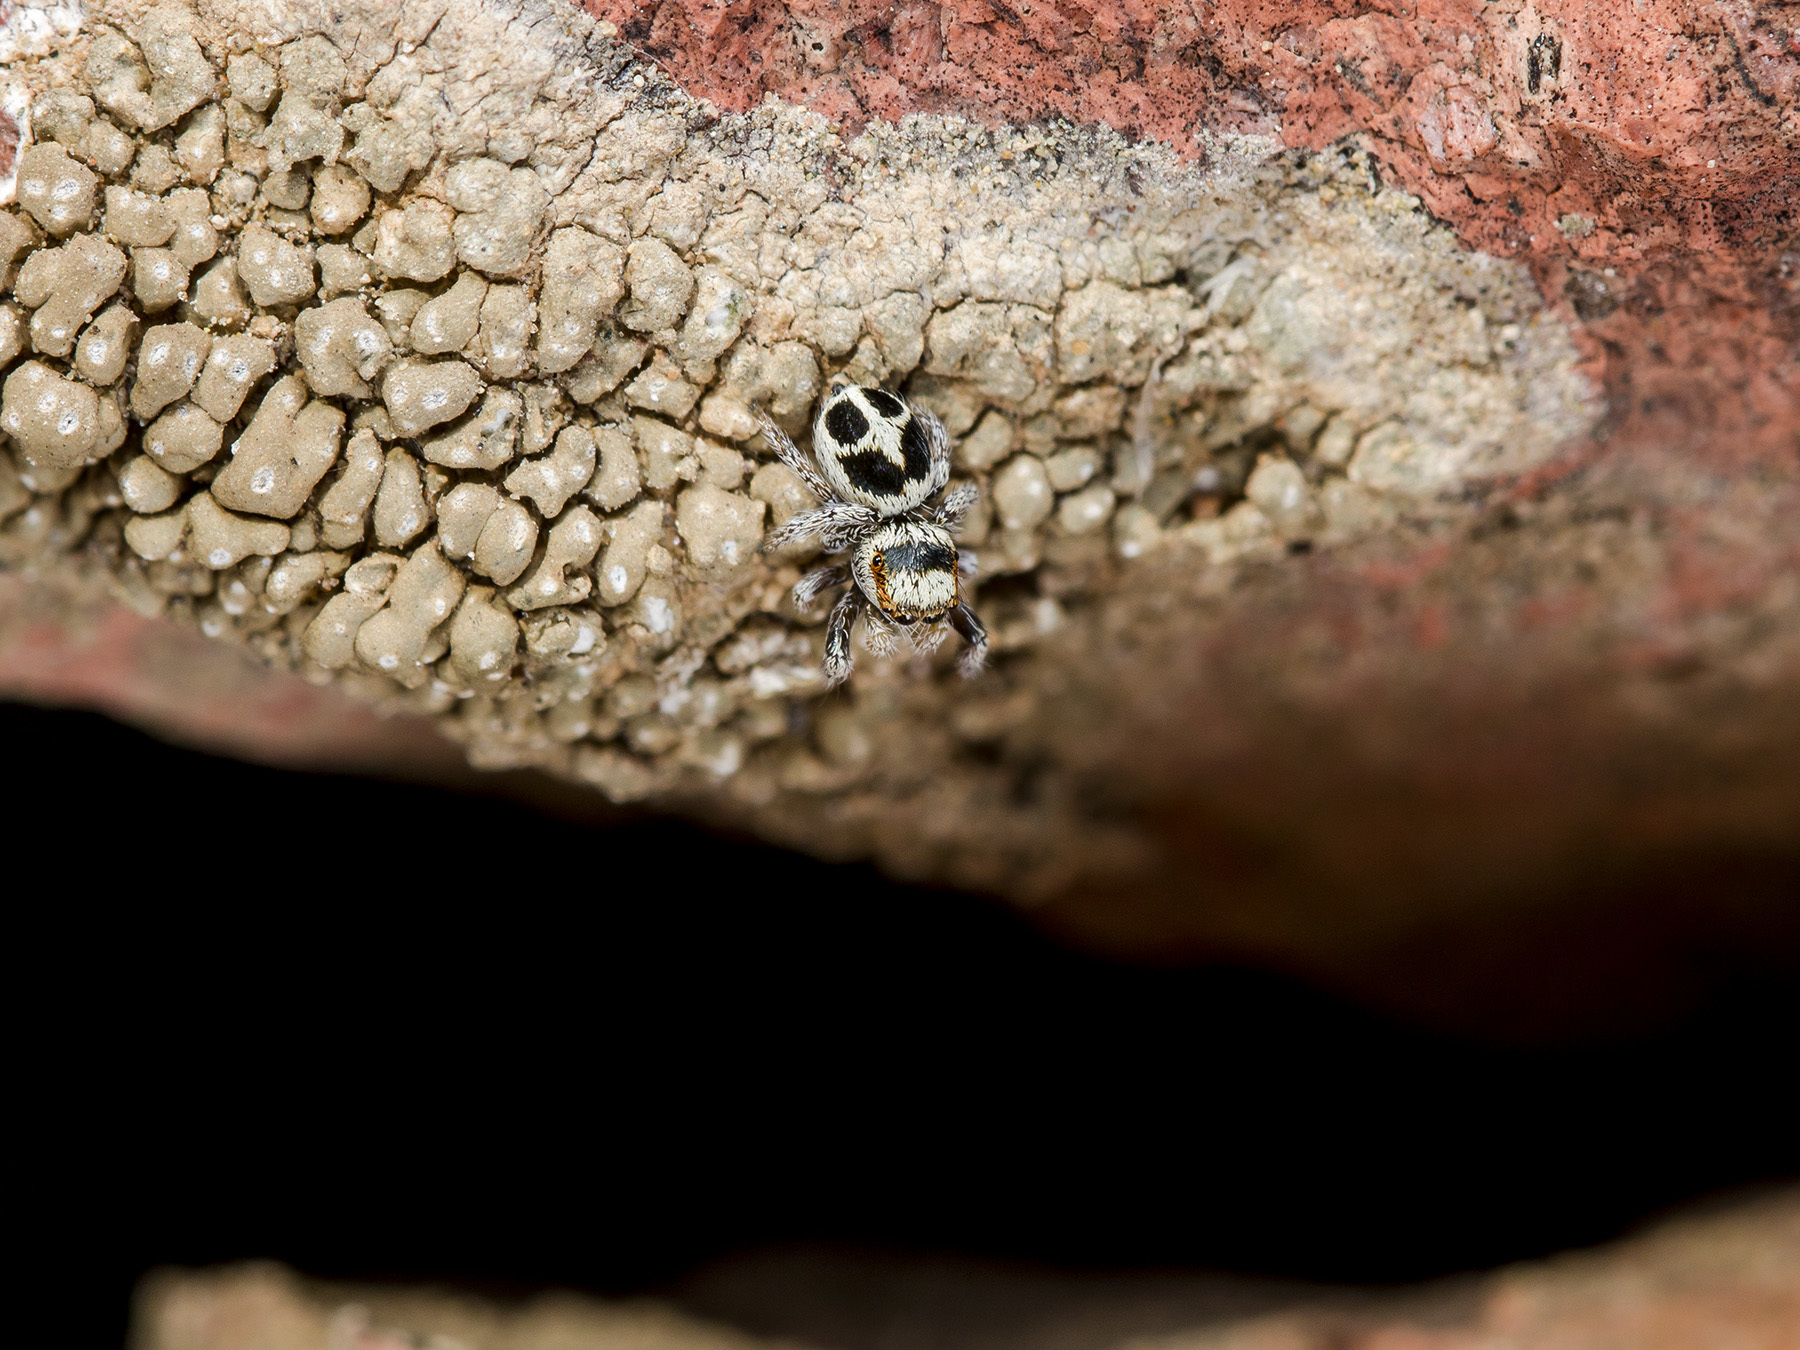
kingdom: Animalia
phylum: Arthropoda
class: Arachnida
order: Araneae
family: Salticidae
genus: Pellenes
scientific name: Pellenes geniculatus
